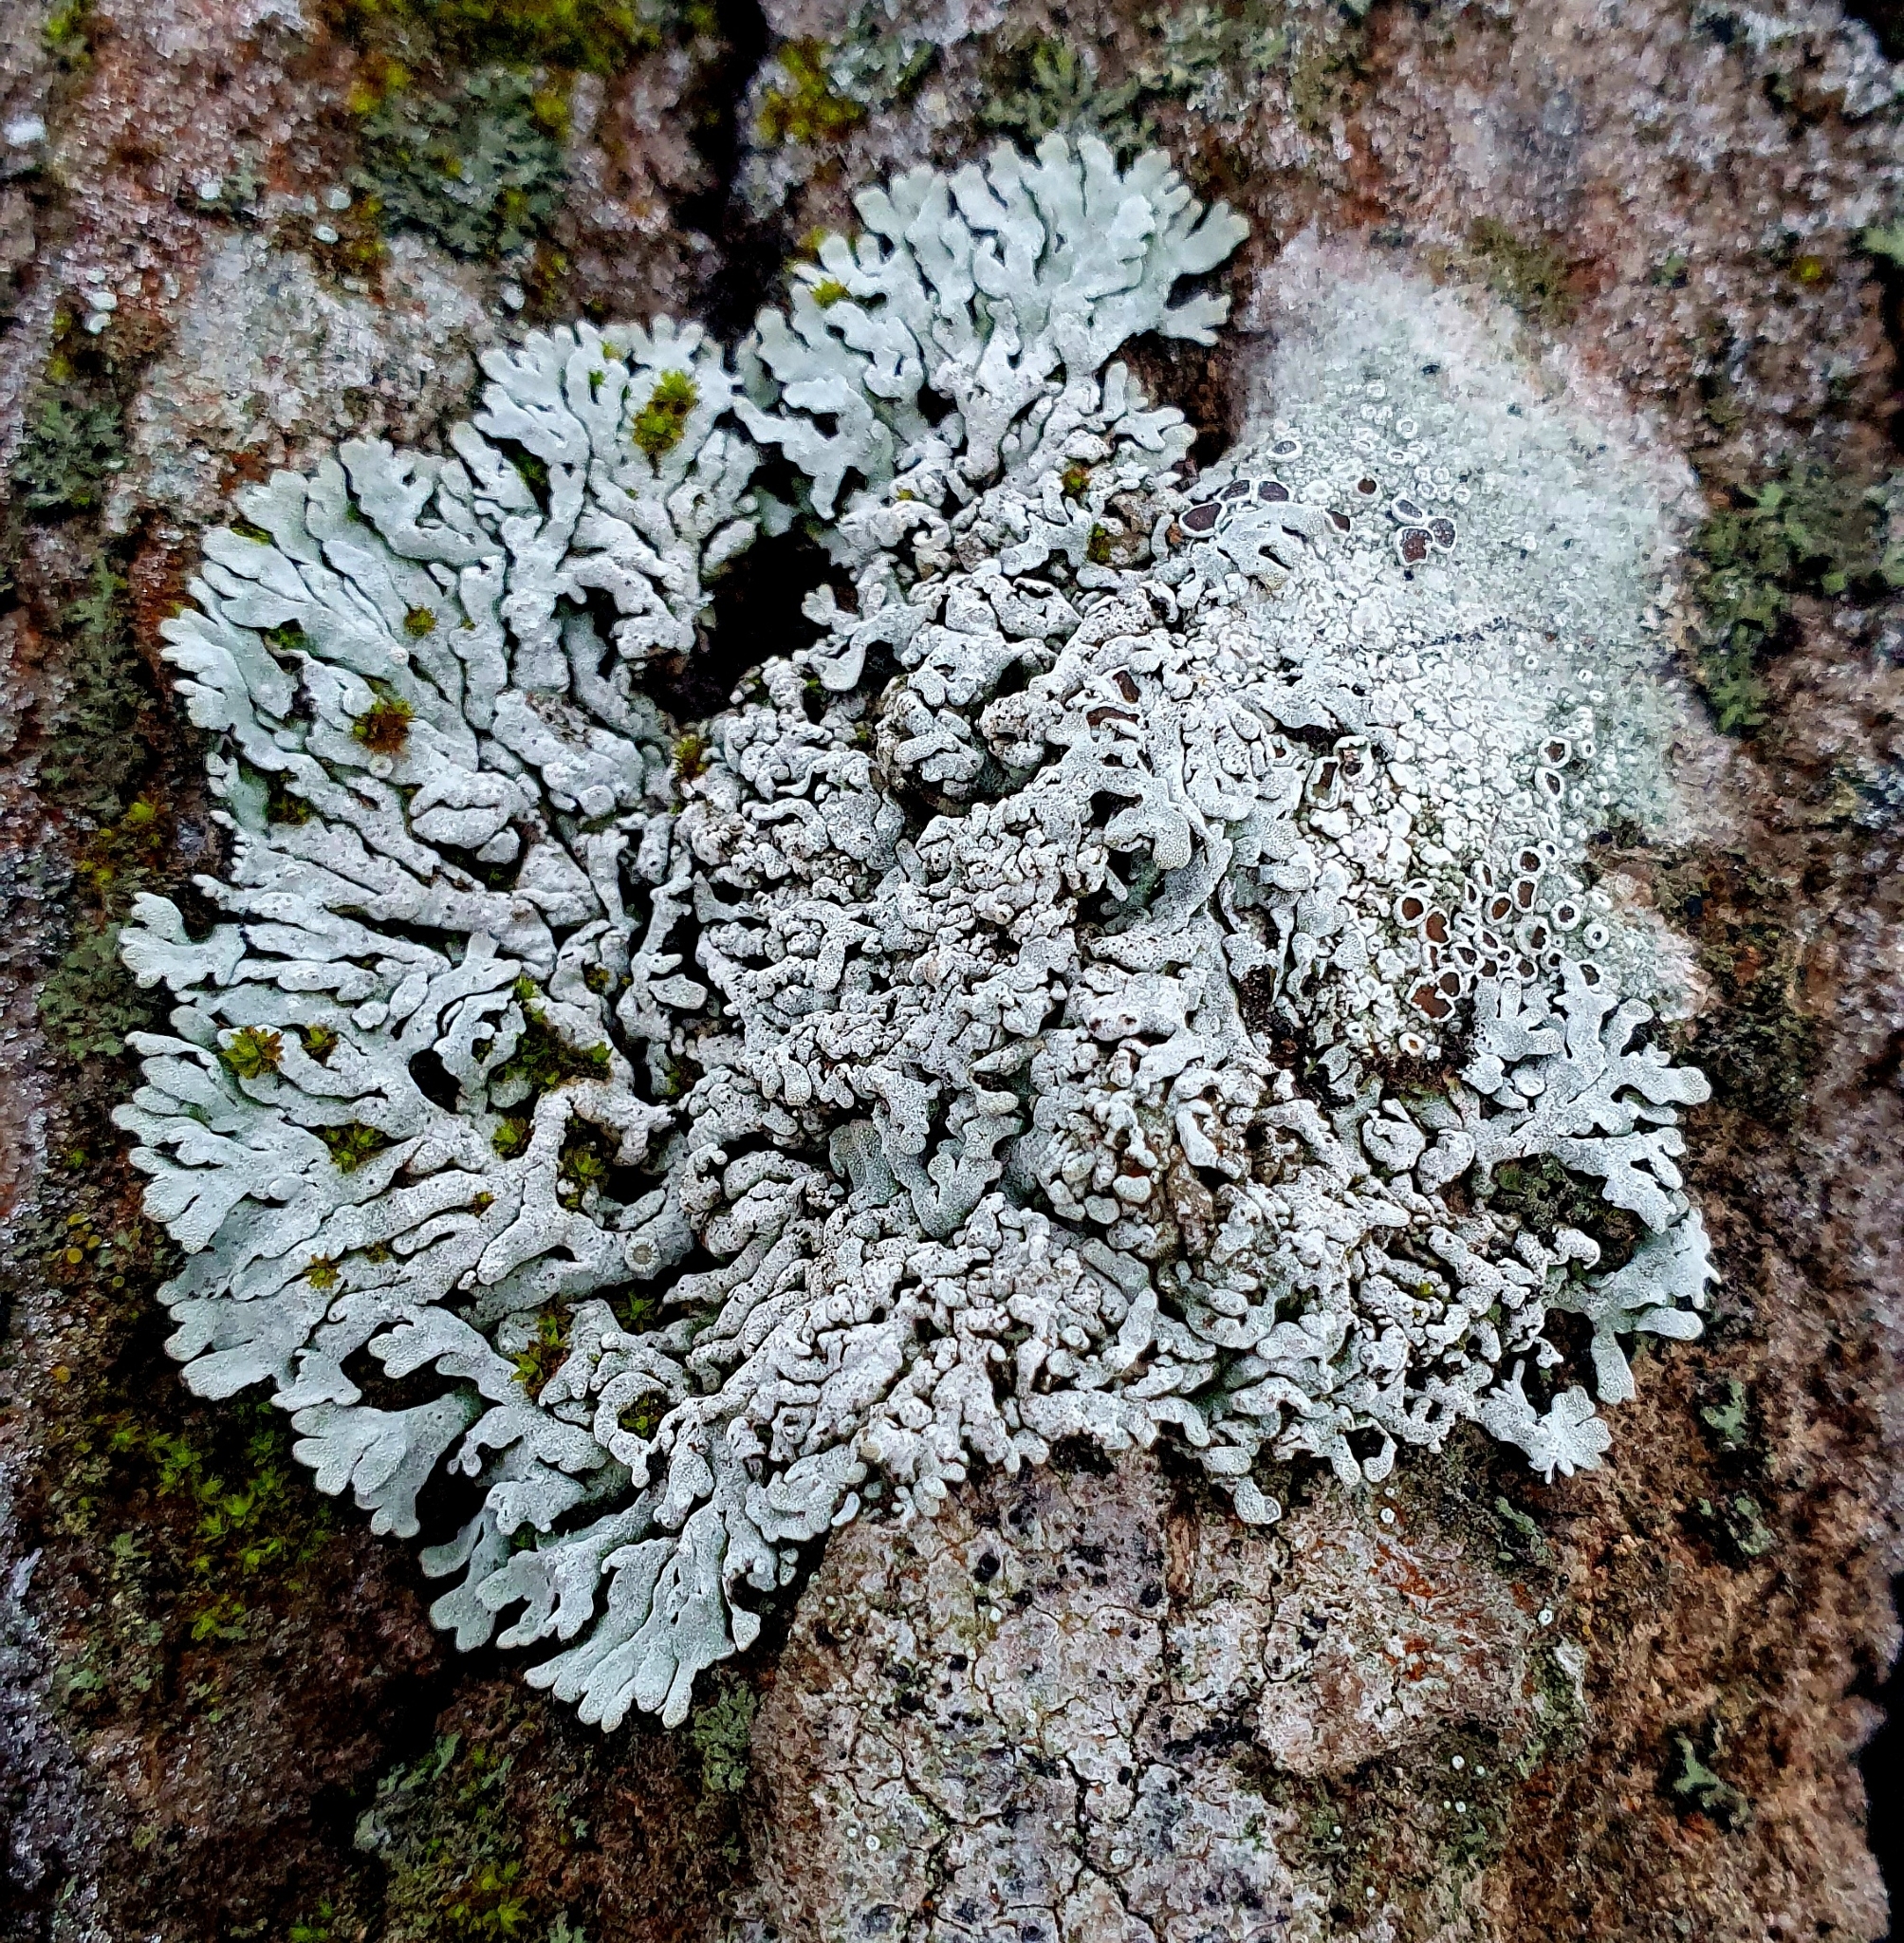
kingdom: Fungi
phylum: Ascomycota
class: Lecanoromycetes
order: Caliciales
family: Physciaceae
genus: Physconia
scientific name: Physconia distorta
